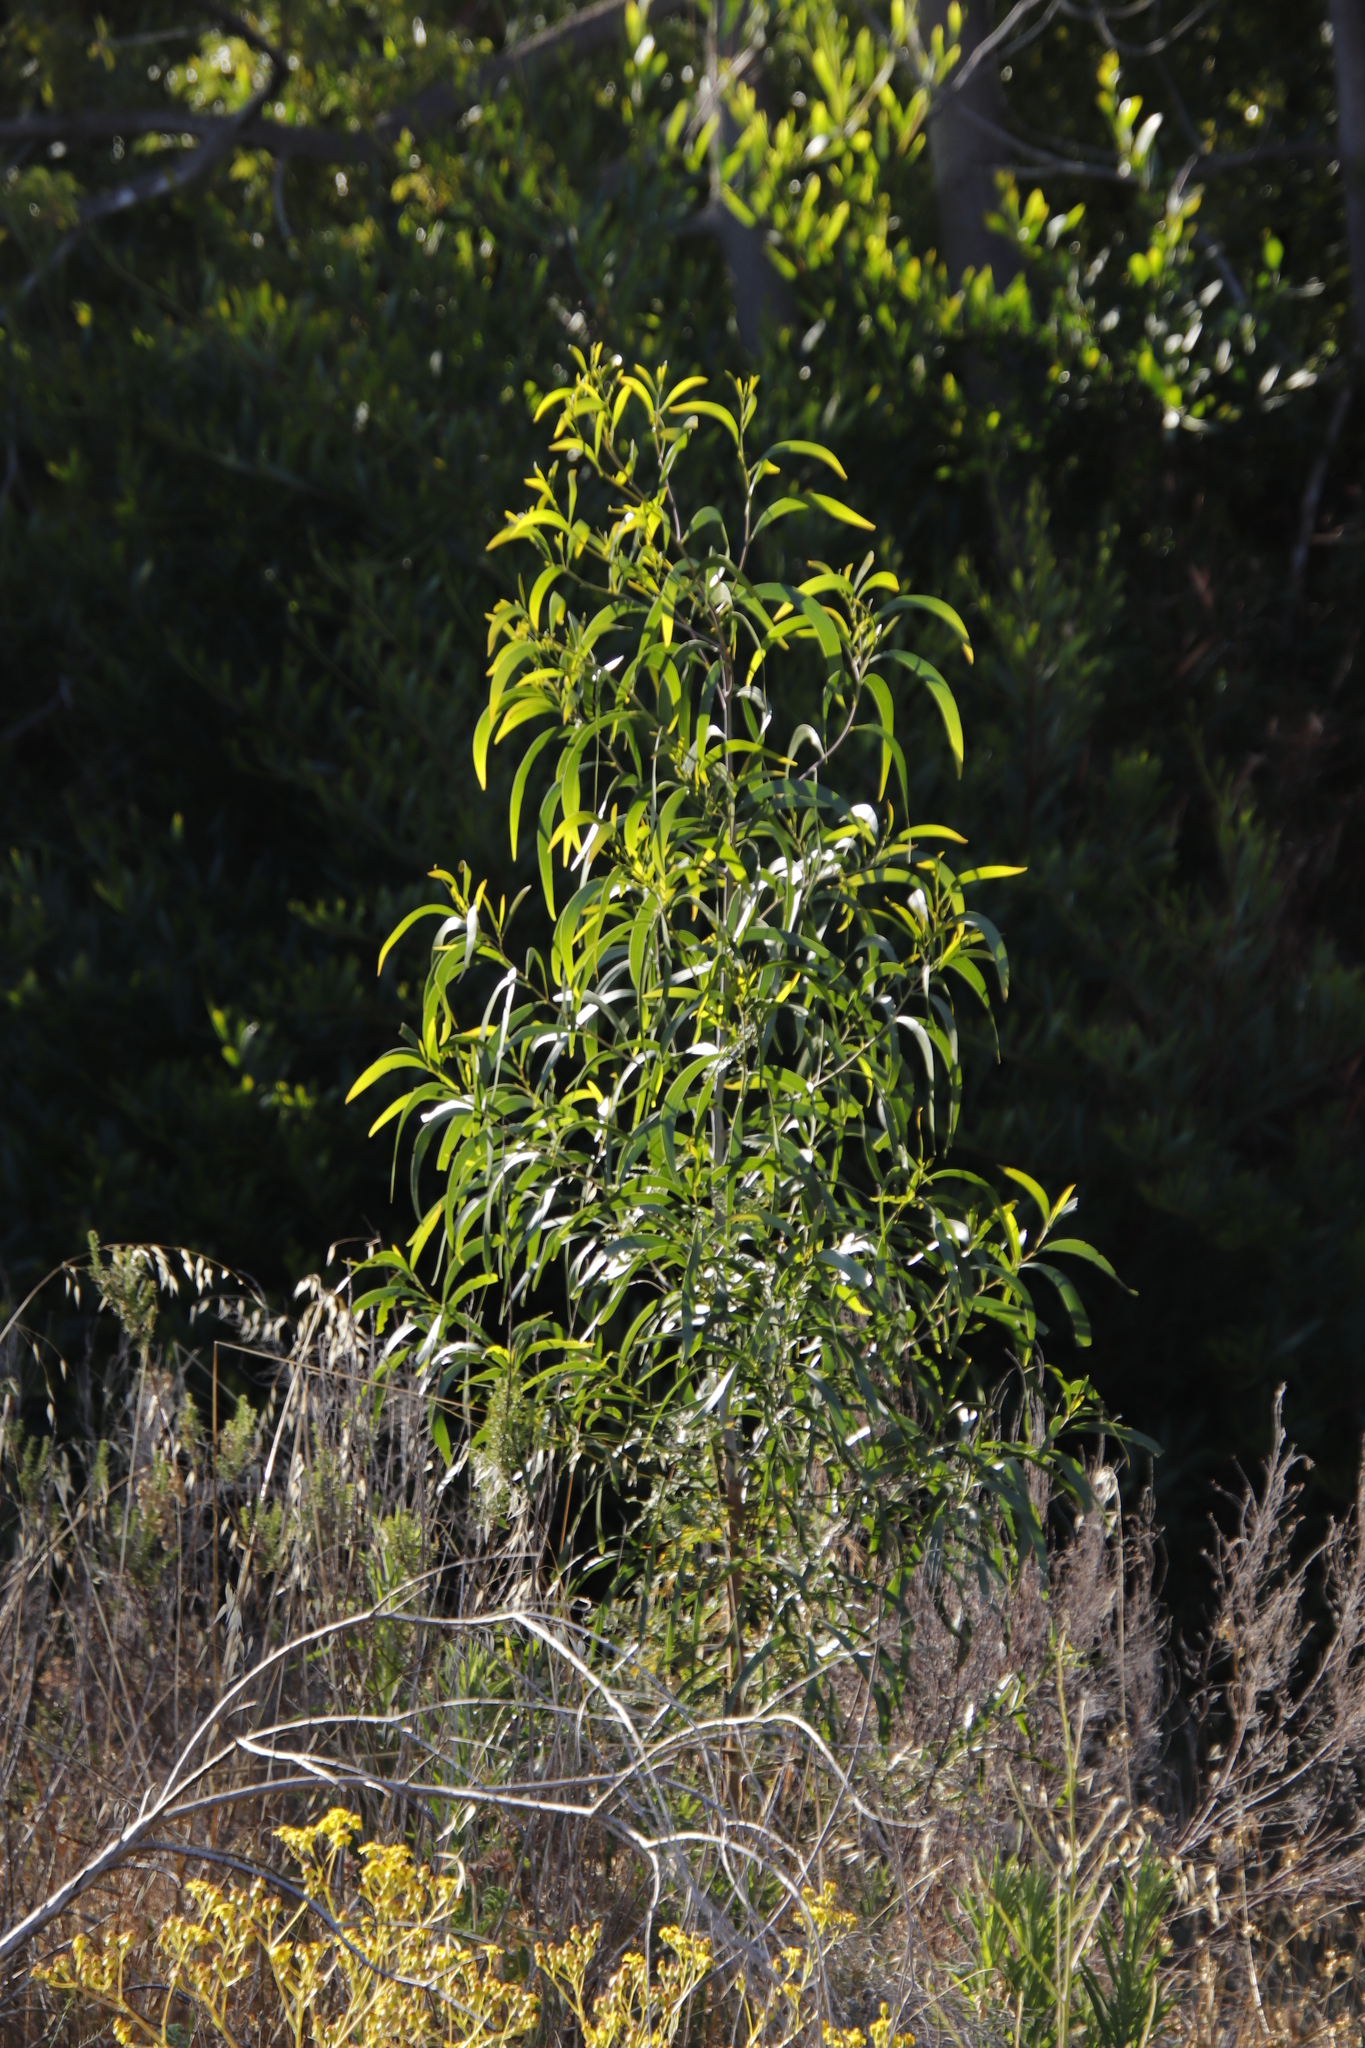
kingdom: Plantae
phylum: Tracheophyta
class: Magnoliopsida
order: Fabales
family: Fabaceae
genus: Acacia
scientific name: Acacia implexa
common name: Black wattle
